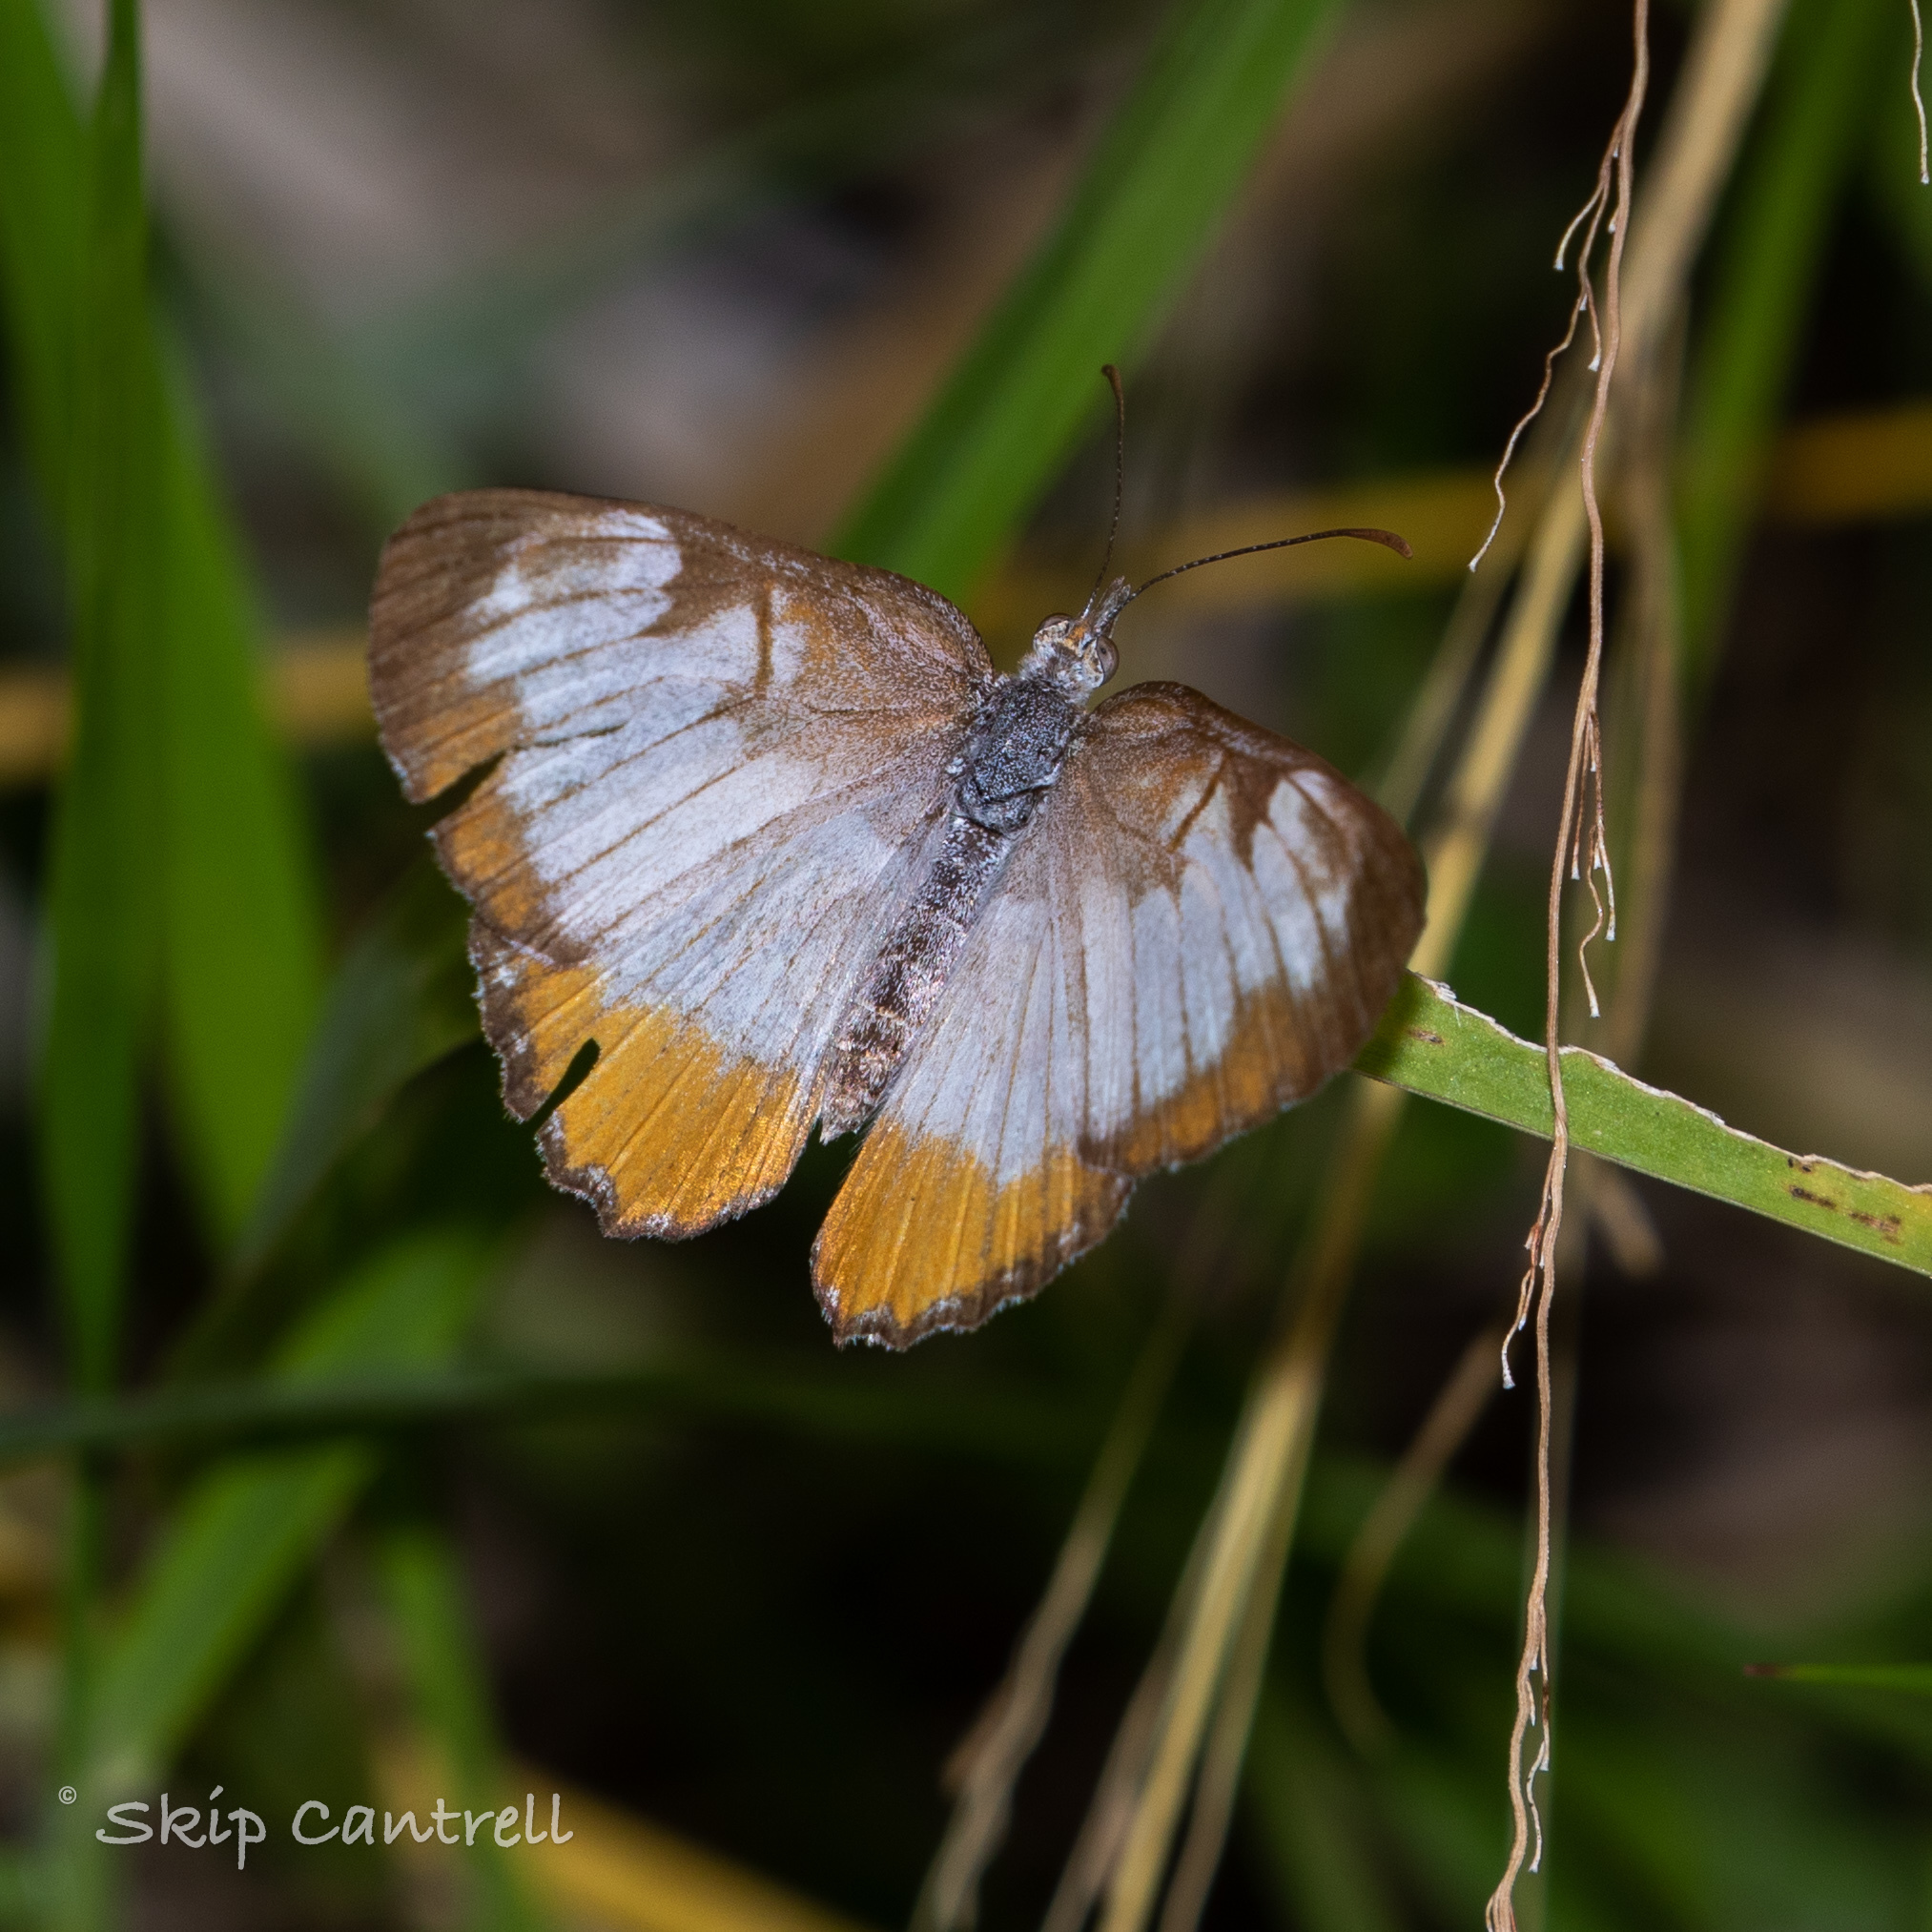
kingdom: Animalia
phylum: Arthropoda
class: Insecta
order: Lepidoptera
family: Nymphalidae
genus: Mestra
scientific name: Mestra amymone
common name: Common mestra
